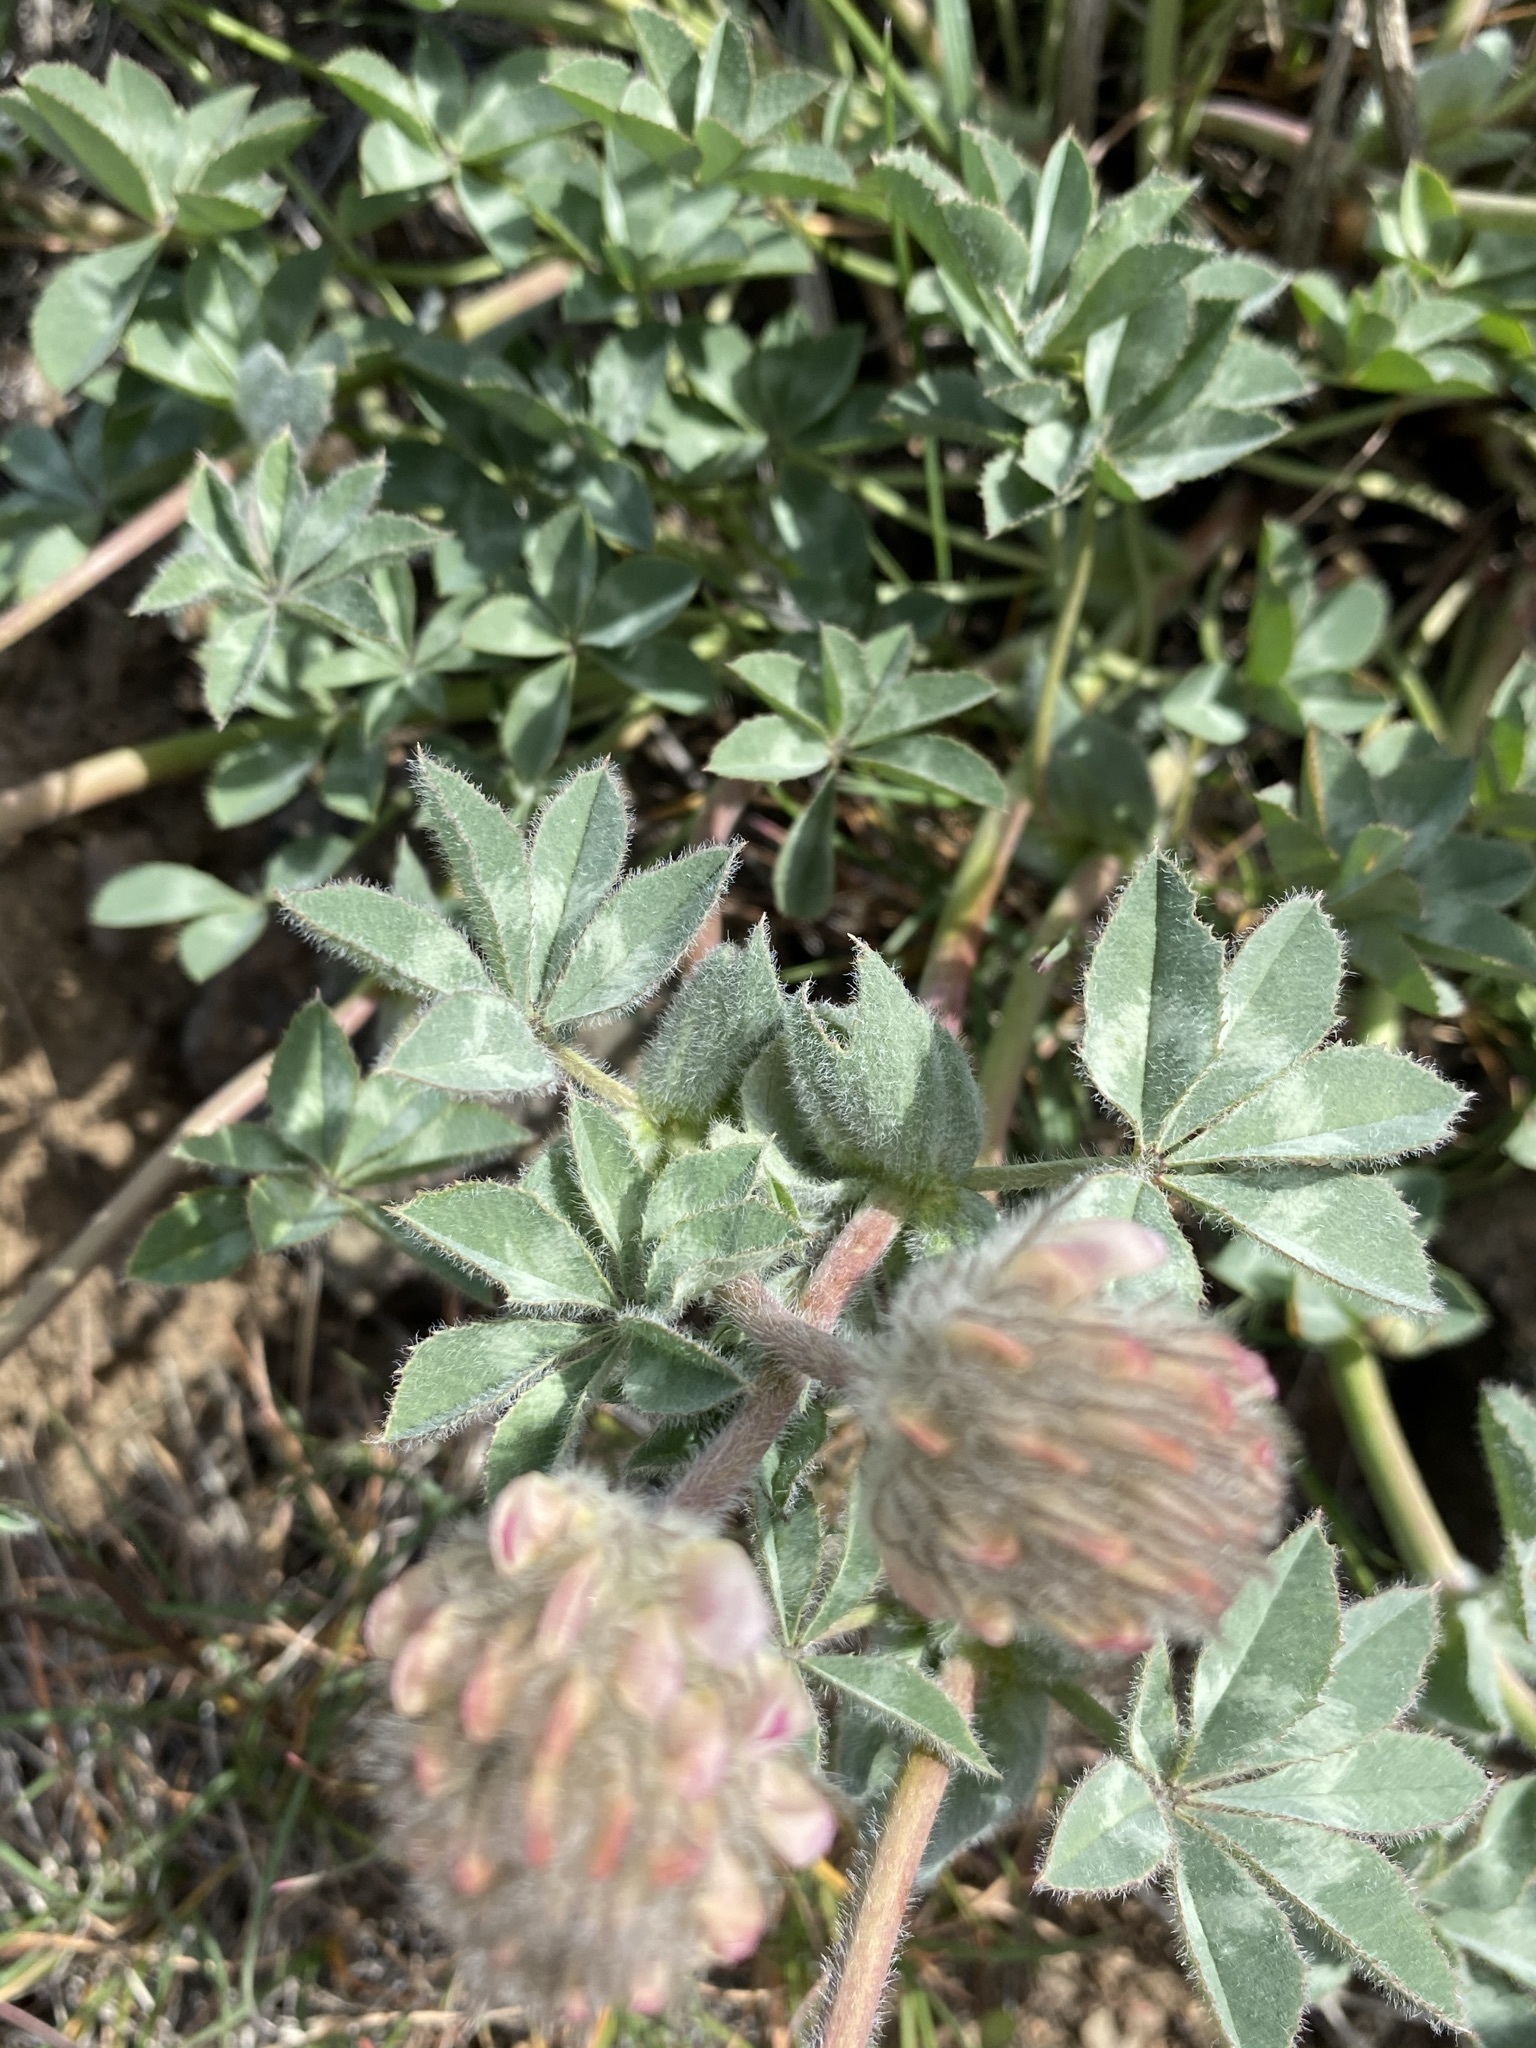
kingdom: Plantae
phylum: Tracheophyta
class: Magnoliopsida
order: Fabales
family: Fabaceae
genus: Trifolium
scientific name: Trifolium macrocephalum
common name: Large-head clover
